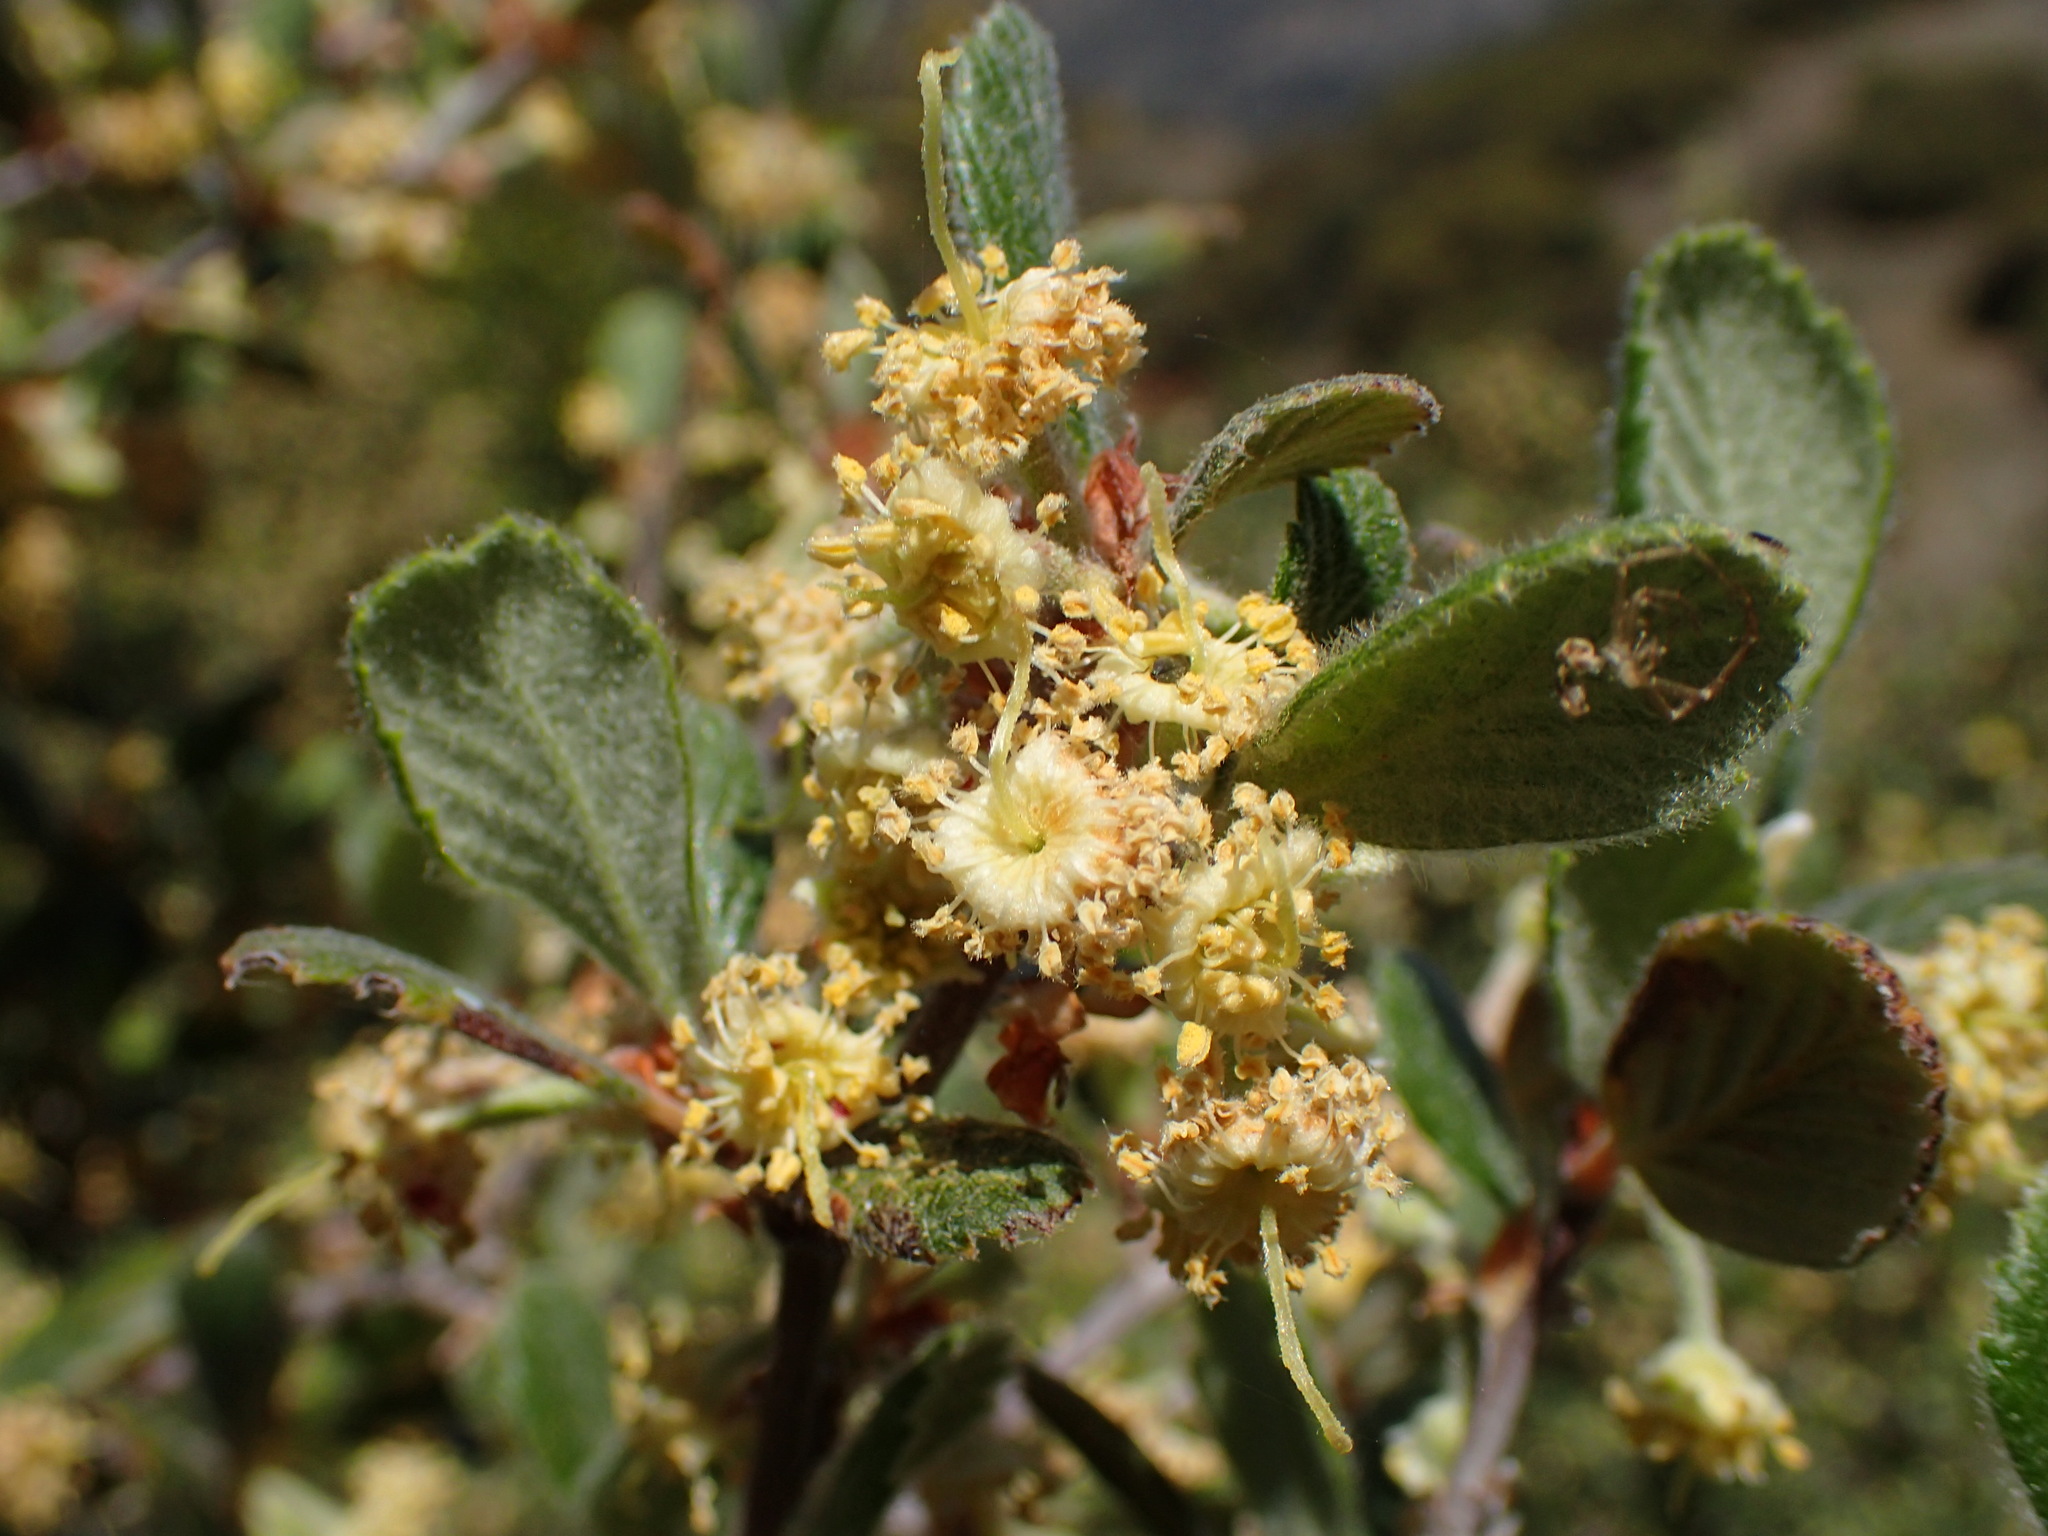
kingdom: Plantae
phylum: Tracheophyta
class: Magnoliopsida
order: Rosales
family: Rosaceae
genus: Cercocarpus
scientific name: Cercocarpus betuloides
